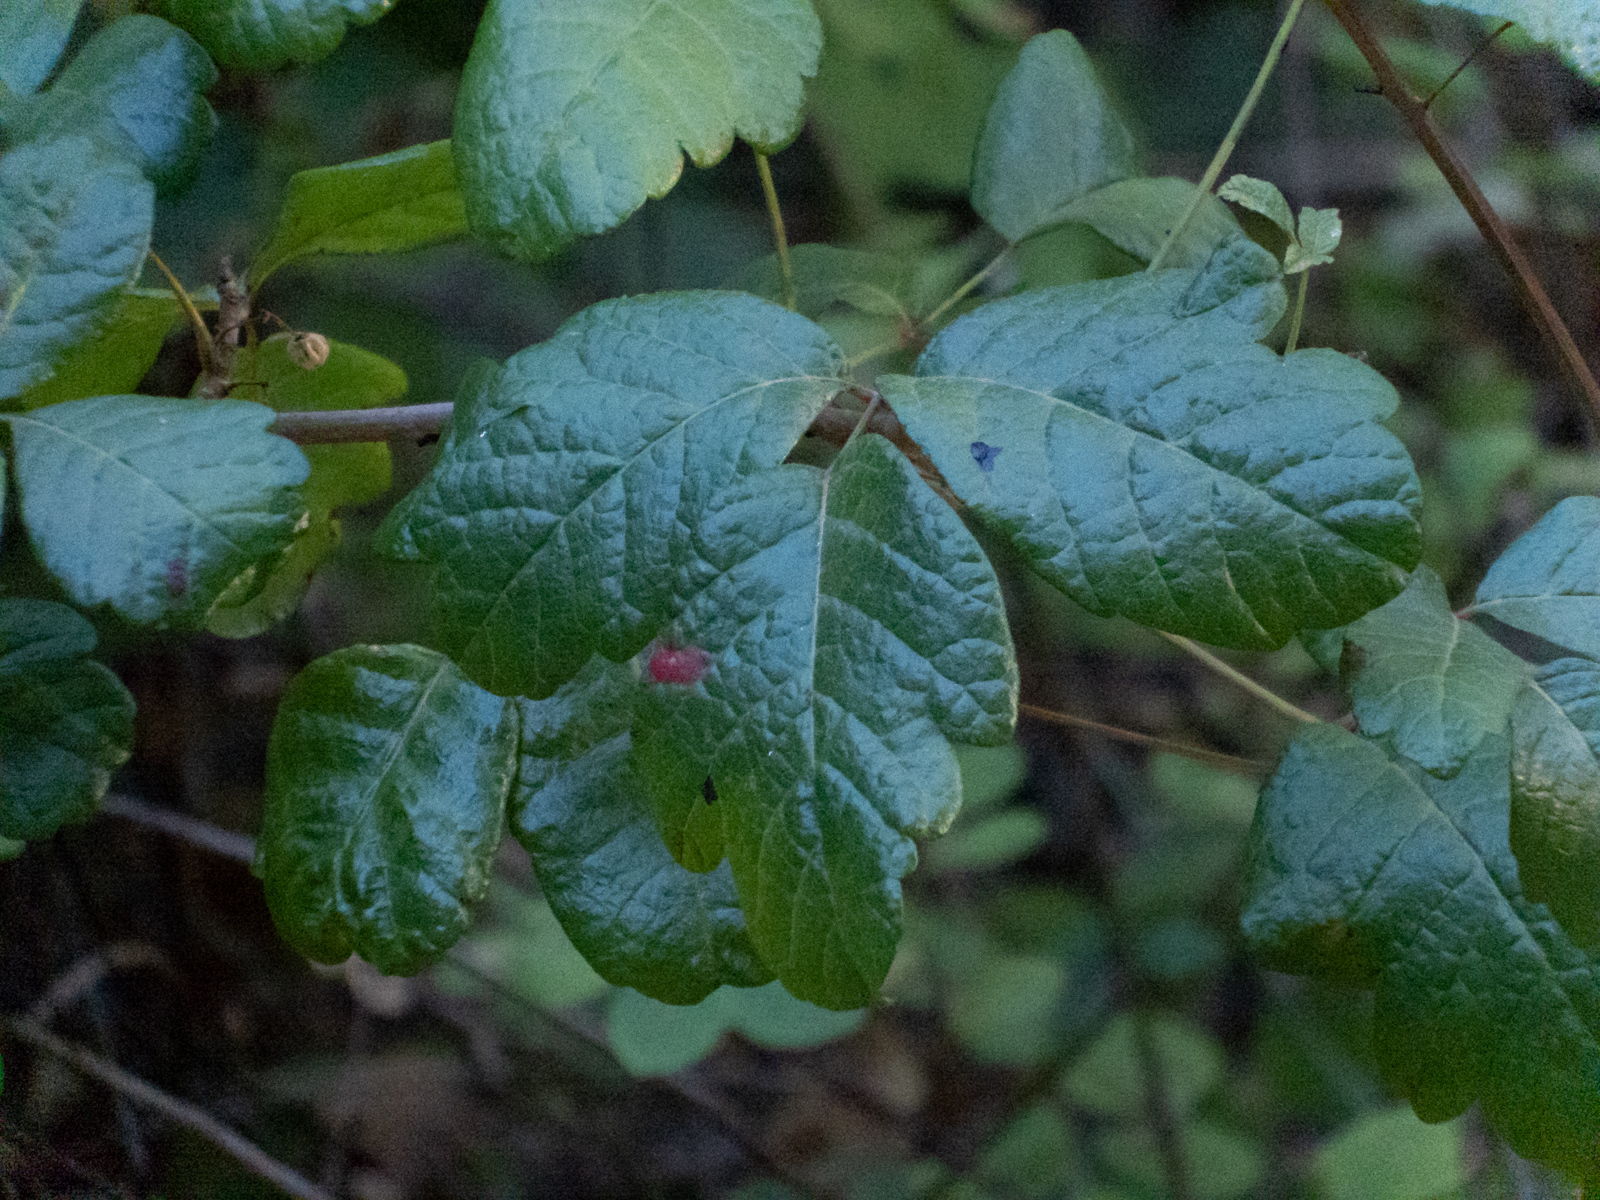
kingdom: Plantae
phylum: Tracheophyta
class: Magnoliopsida
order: Sapindales
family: Anacardiaceae
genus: Toxicodendron
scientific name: Toxicodendron diversilobum
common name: Pacific poison-oak
